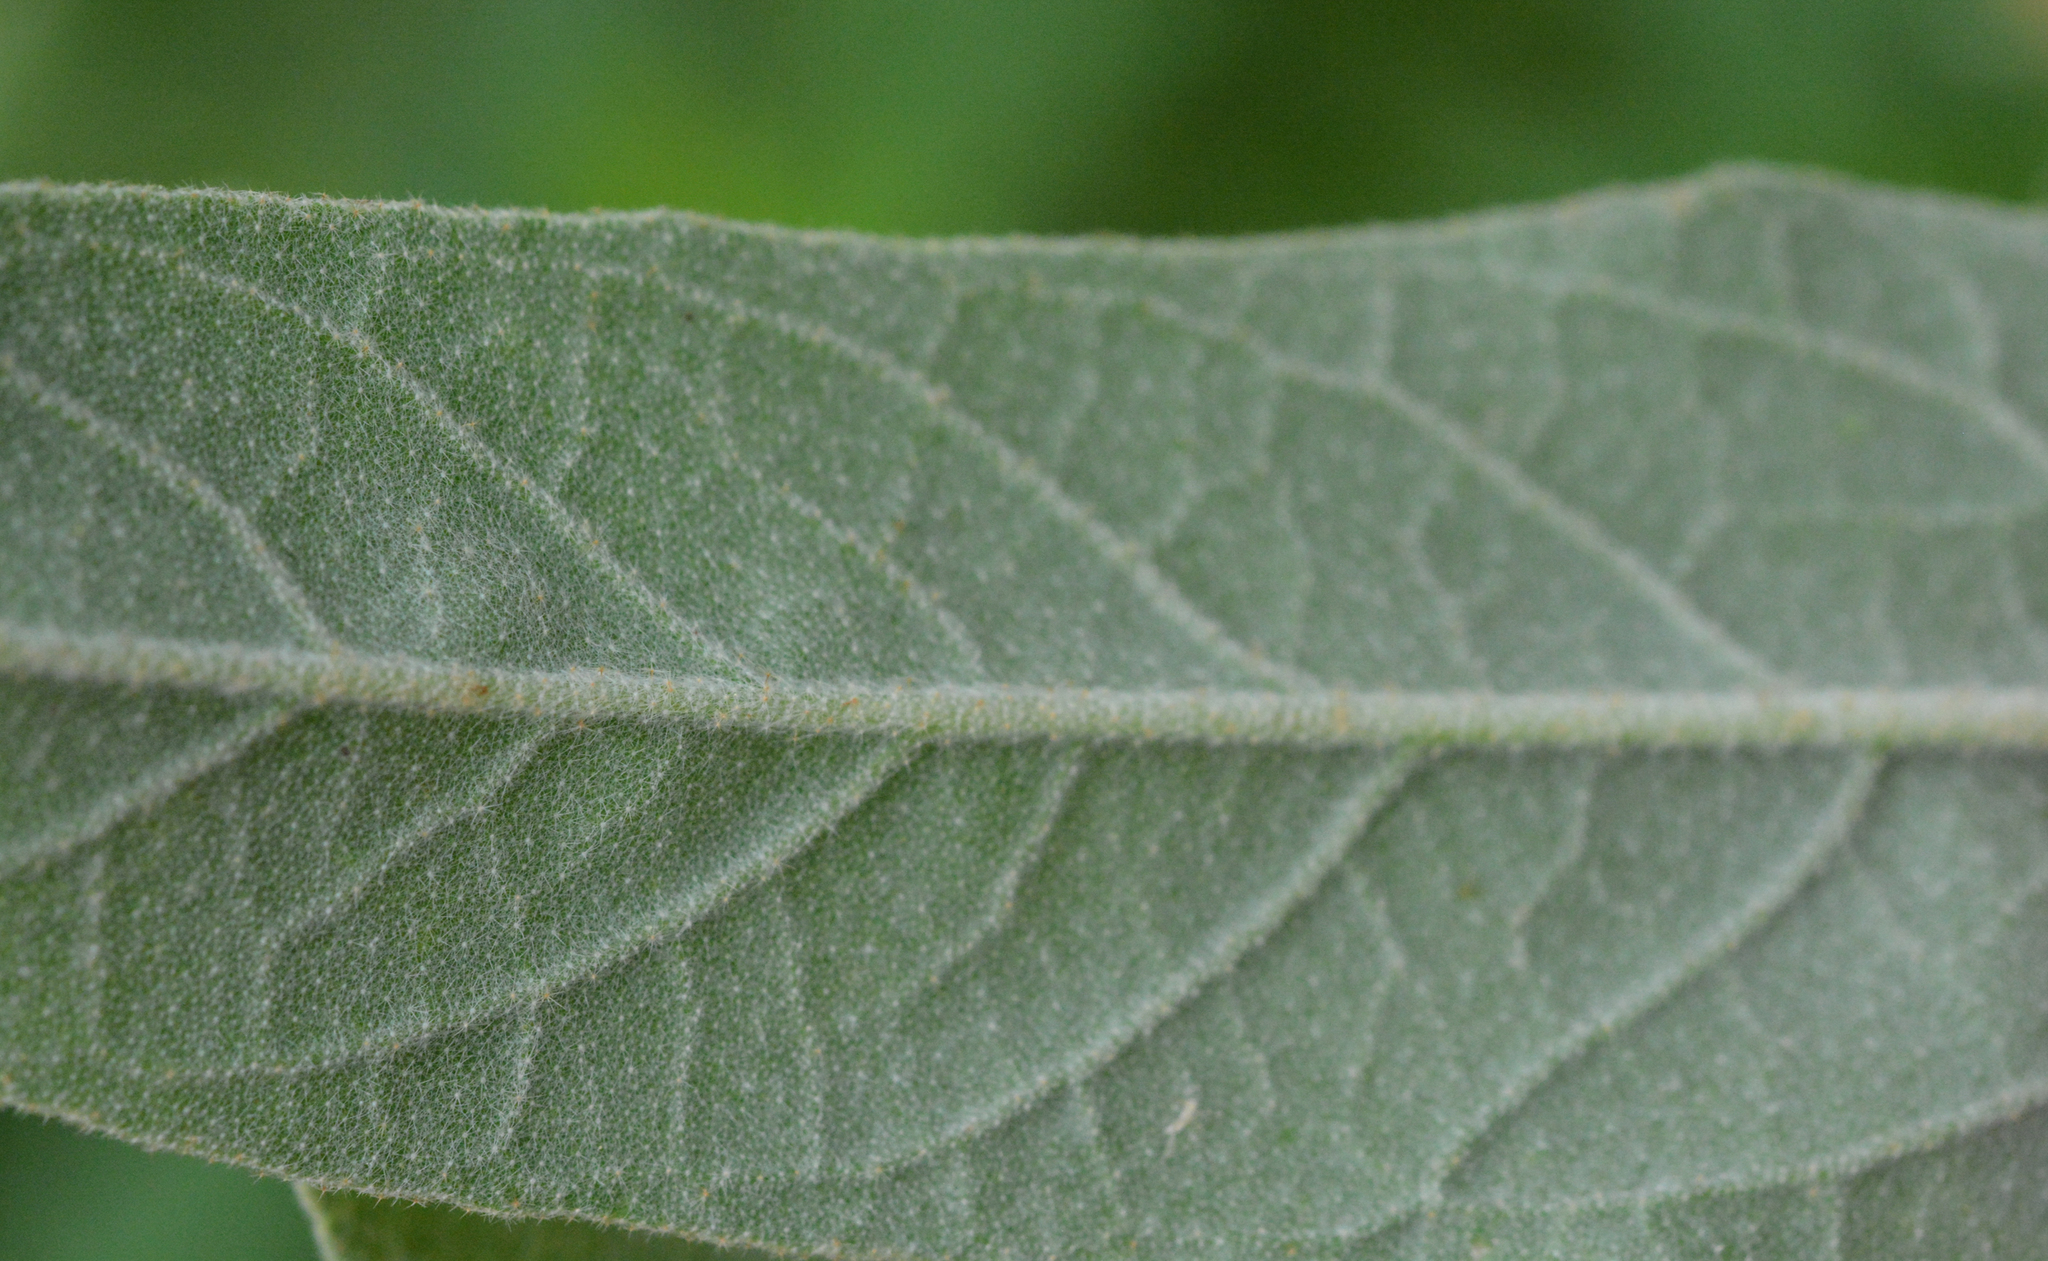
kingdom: Plantae
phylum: Tracheophyta
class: Magnoliopsida
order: Malpighiales
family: Euphorbiaceae
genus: Croton
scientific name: Croton lindheimeri
